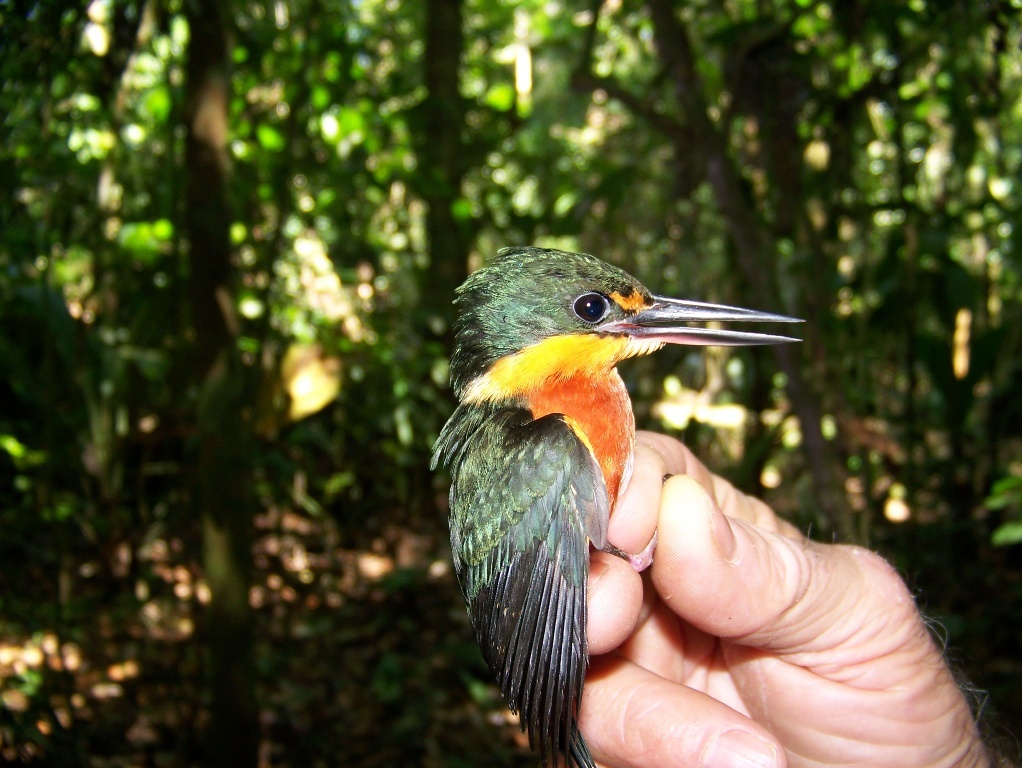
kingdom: Animalia
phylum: Chordata
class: Aves
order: Coraciiformes
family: Alcedinidae
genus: Chloroceryle
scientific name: Chloroceryle aenea
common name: American pygmy kingfisher
